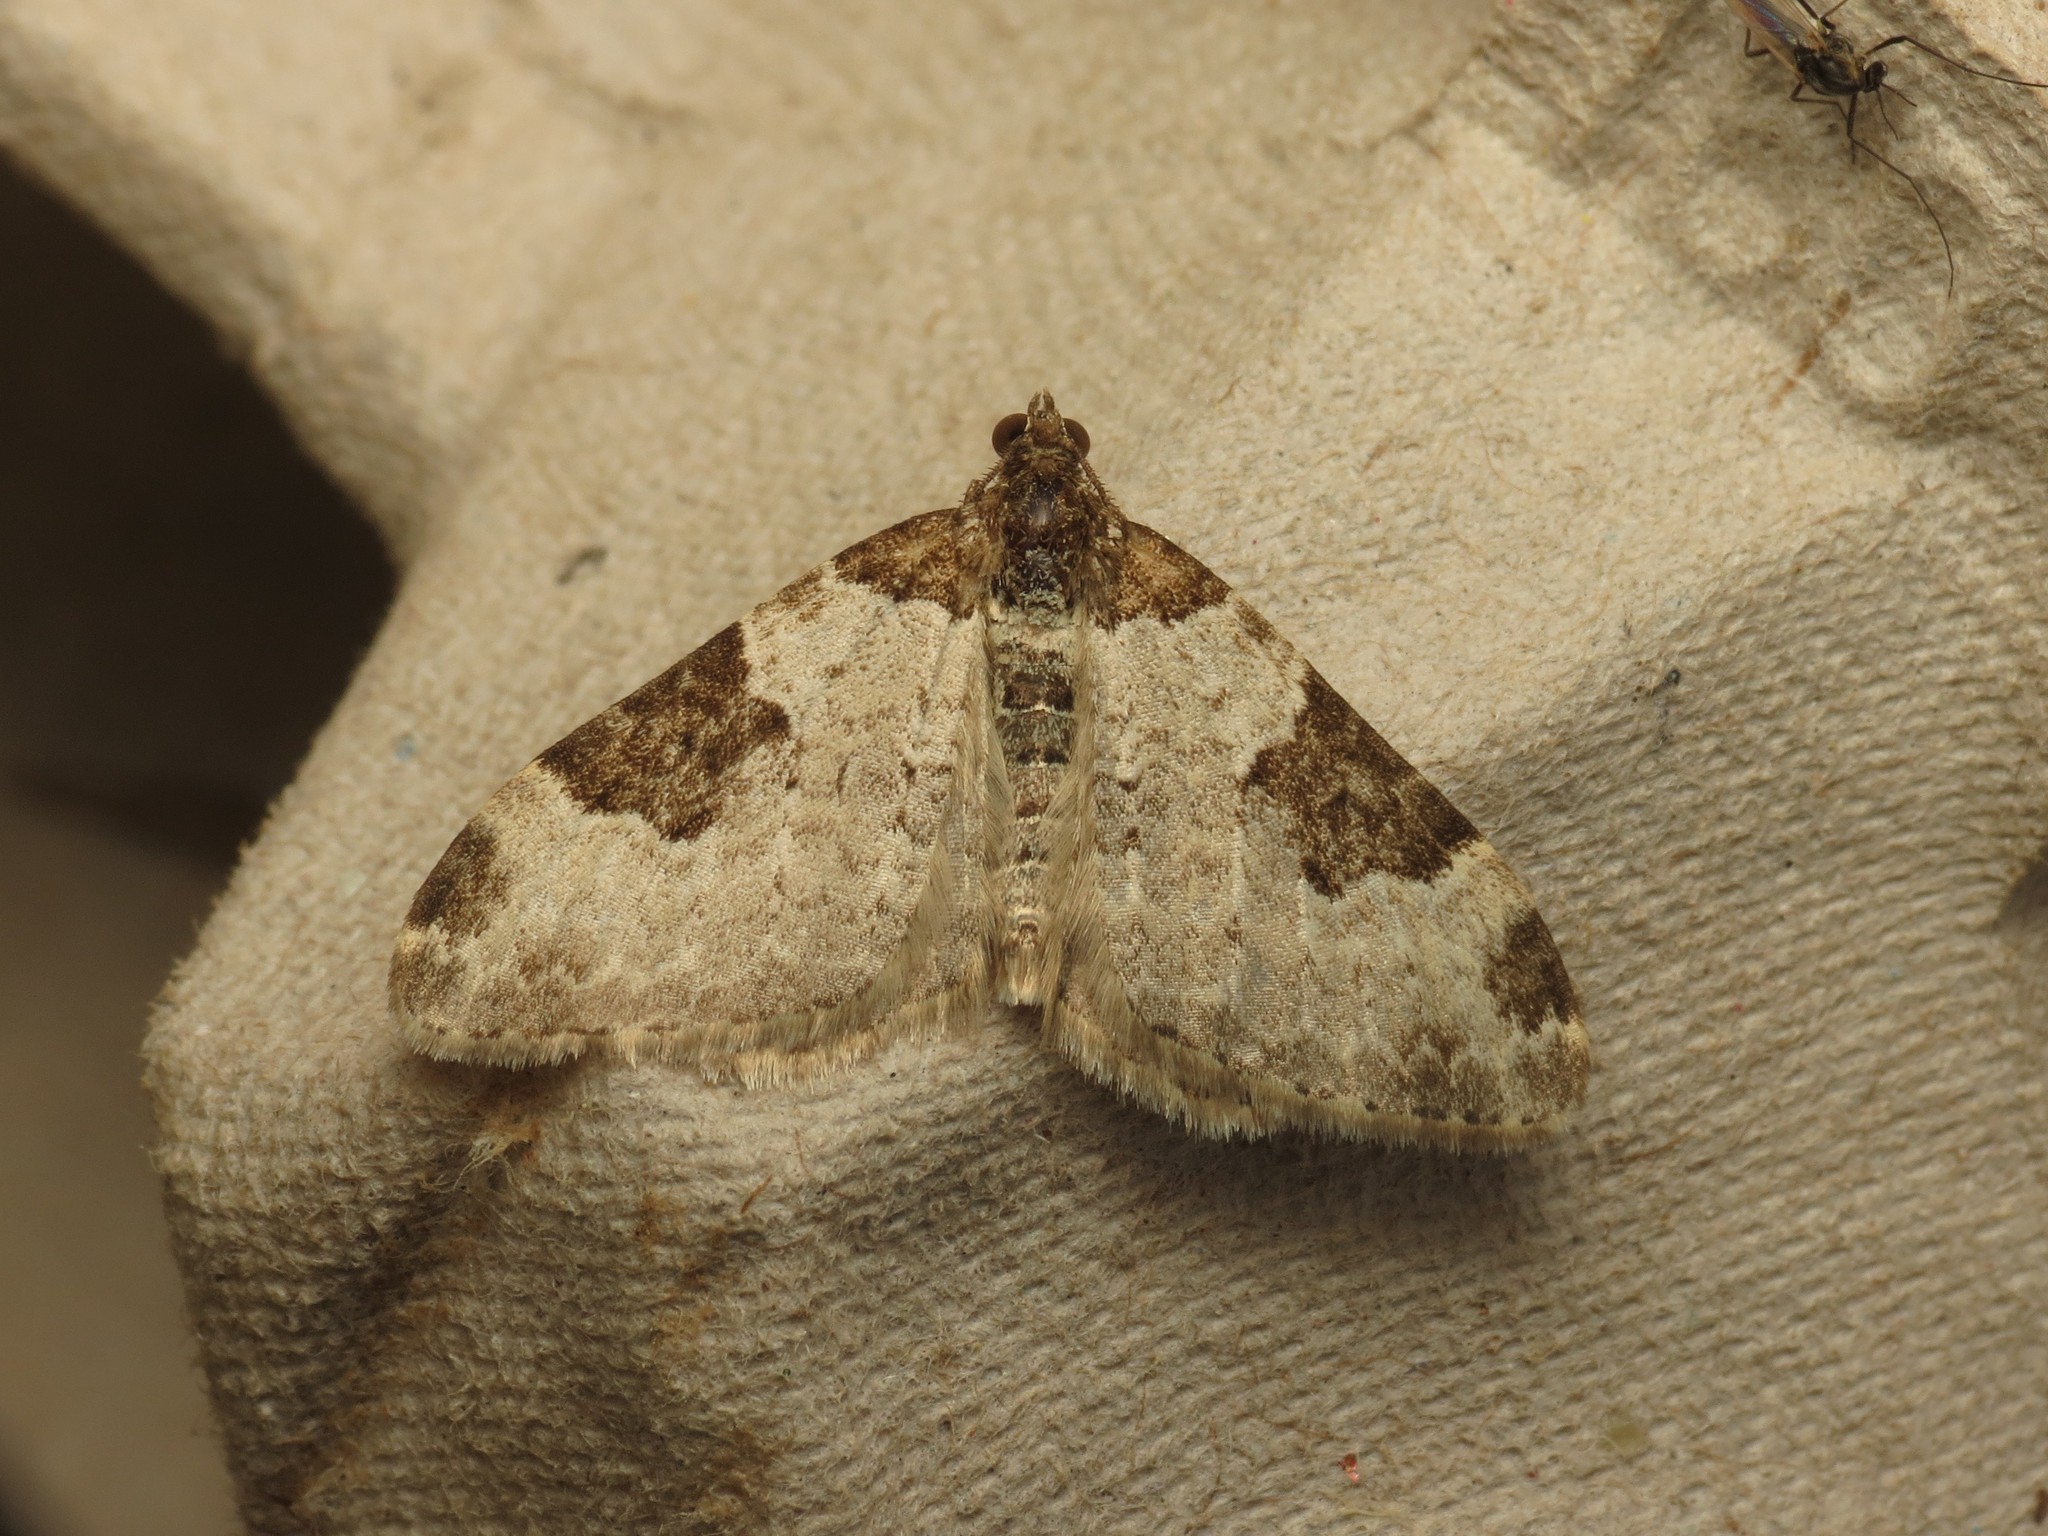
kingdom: Animalia
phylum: Arthropoda
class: Insecta
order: Lepidoptera
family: Geometridae
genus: Xanthorhoe
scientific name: Xanthorhoe fluctuata
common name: Garden carpet
